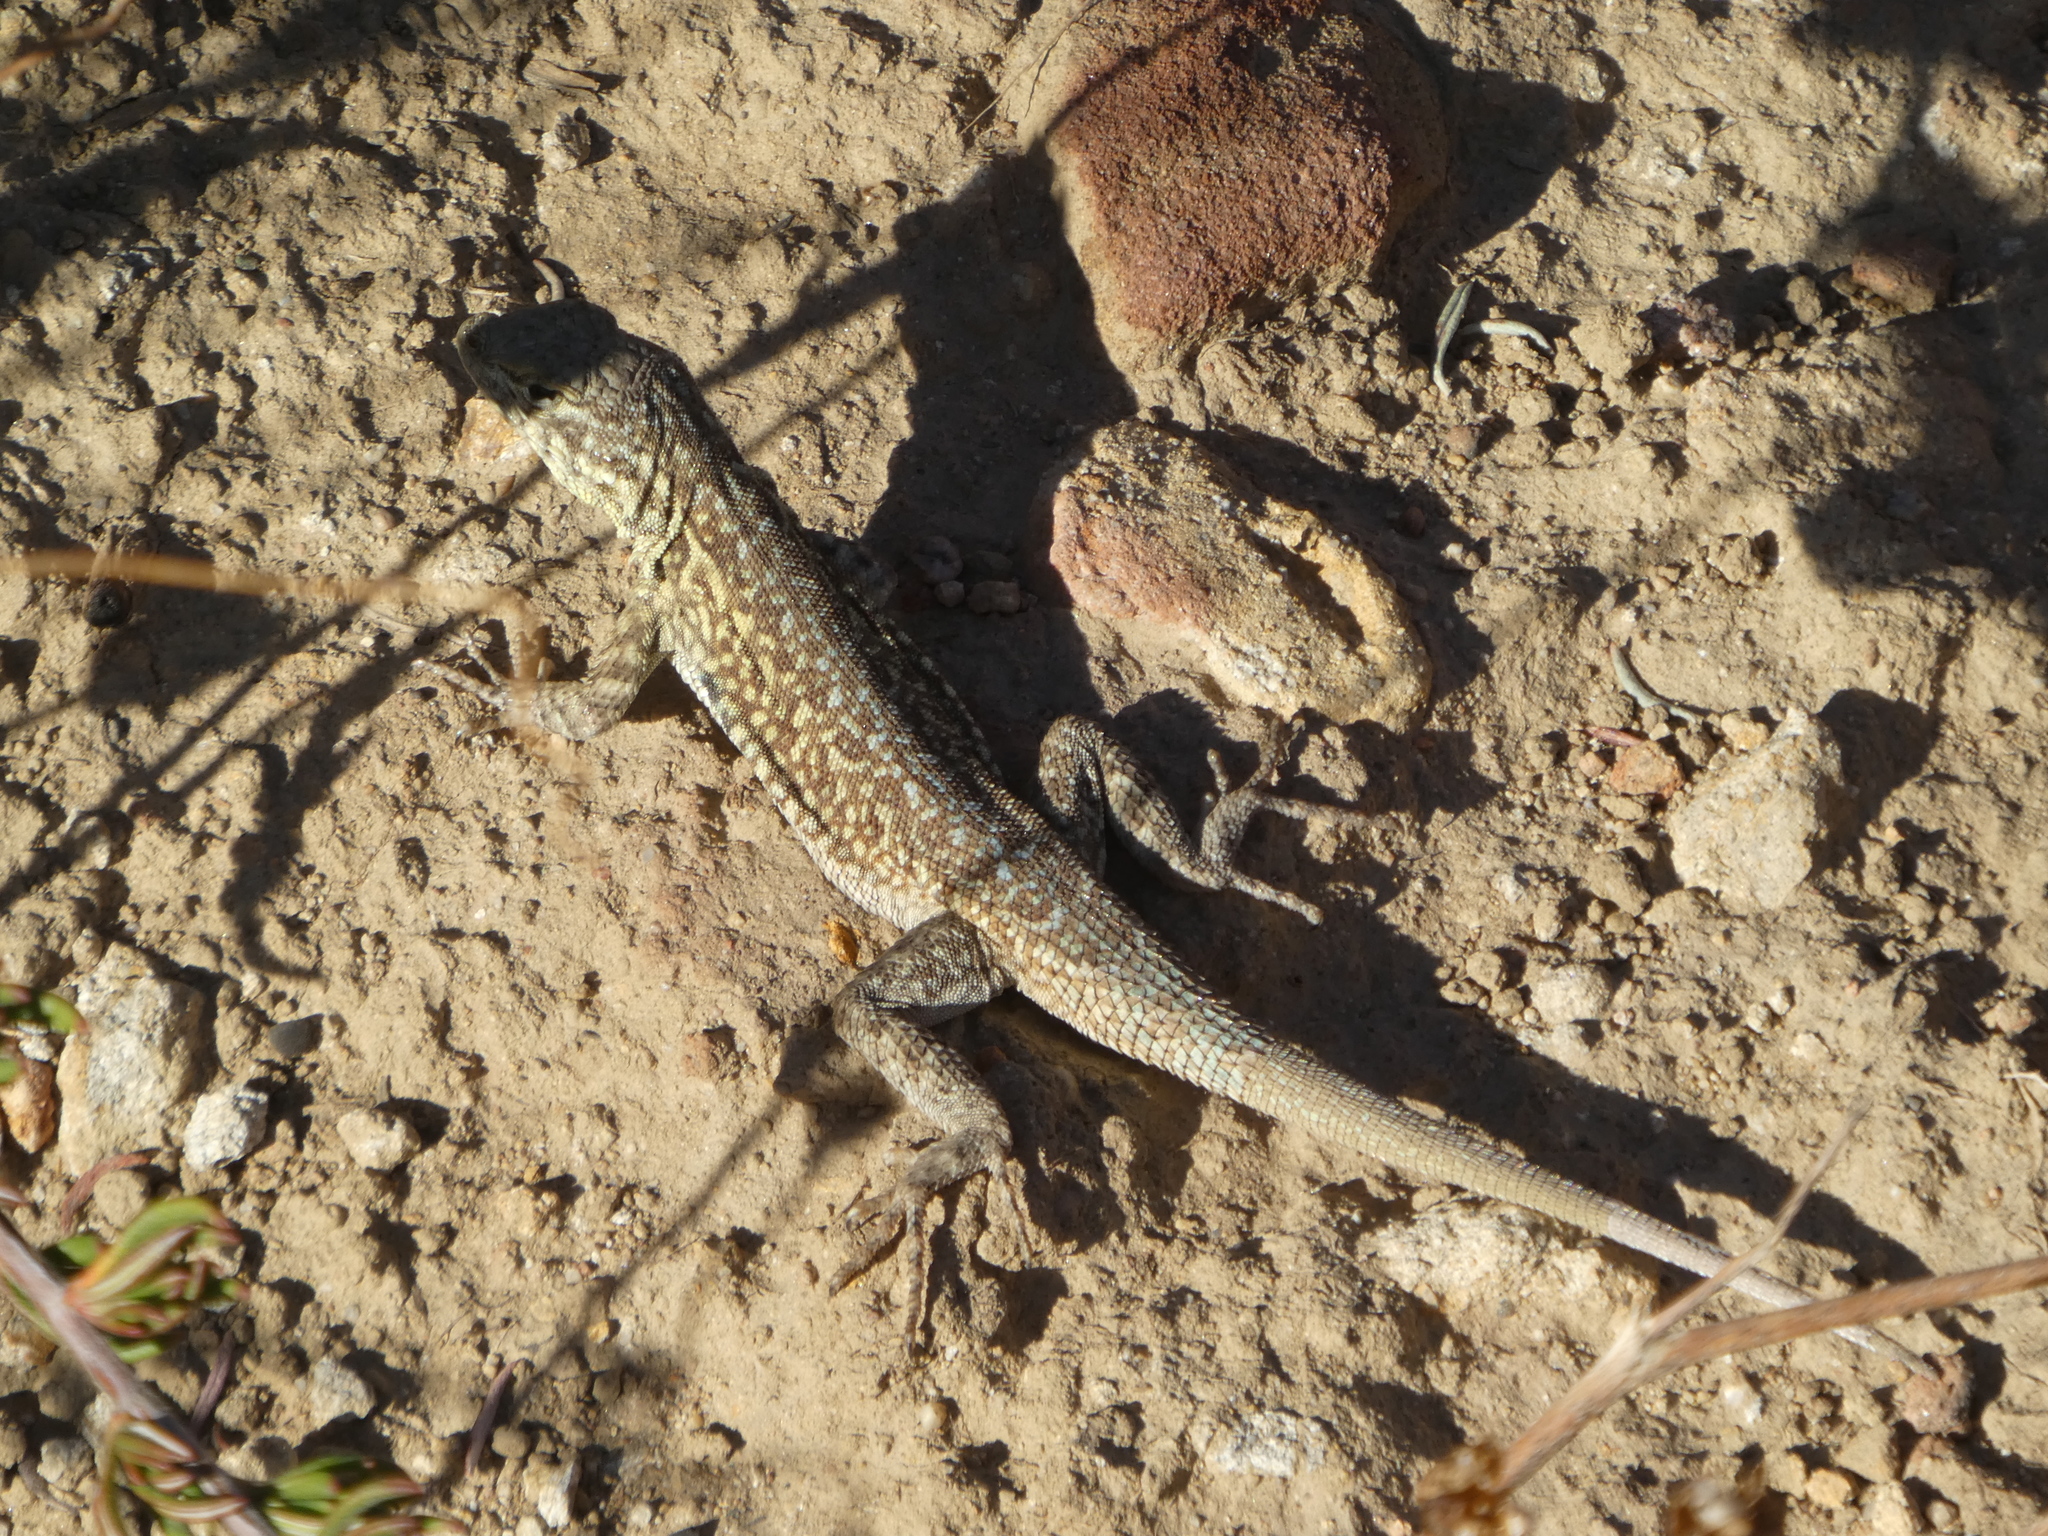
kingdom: Animalia
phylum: Chordata
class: Squamata
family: Phrynosomatidae
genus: Uta
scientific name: Uta stansburiana
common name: Side-blotched lizard
